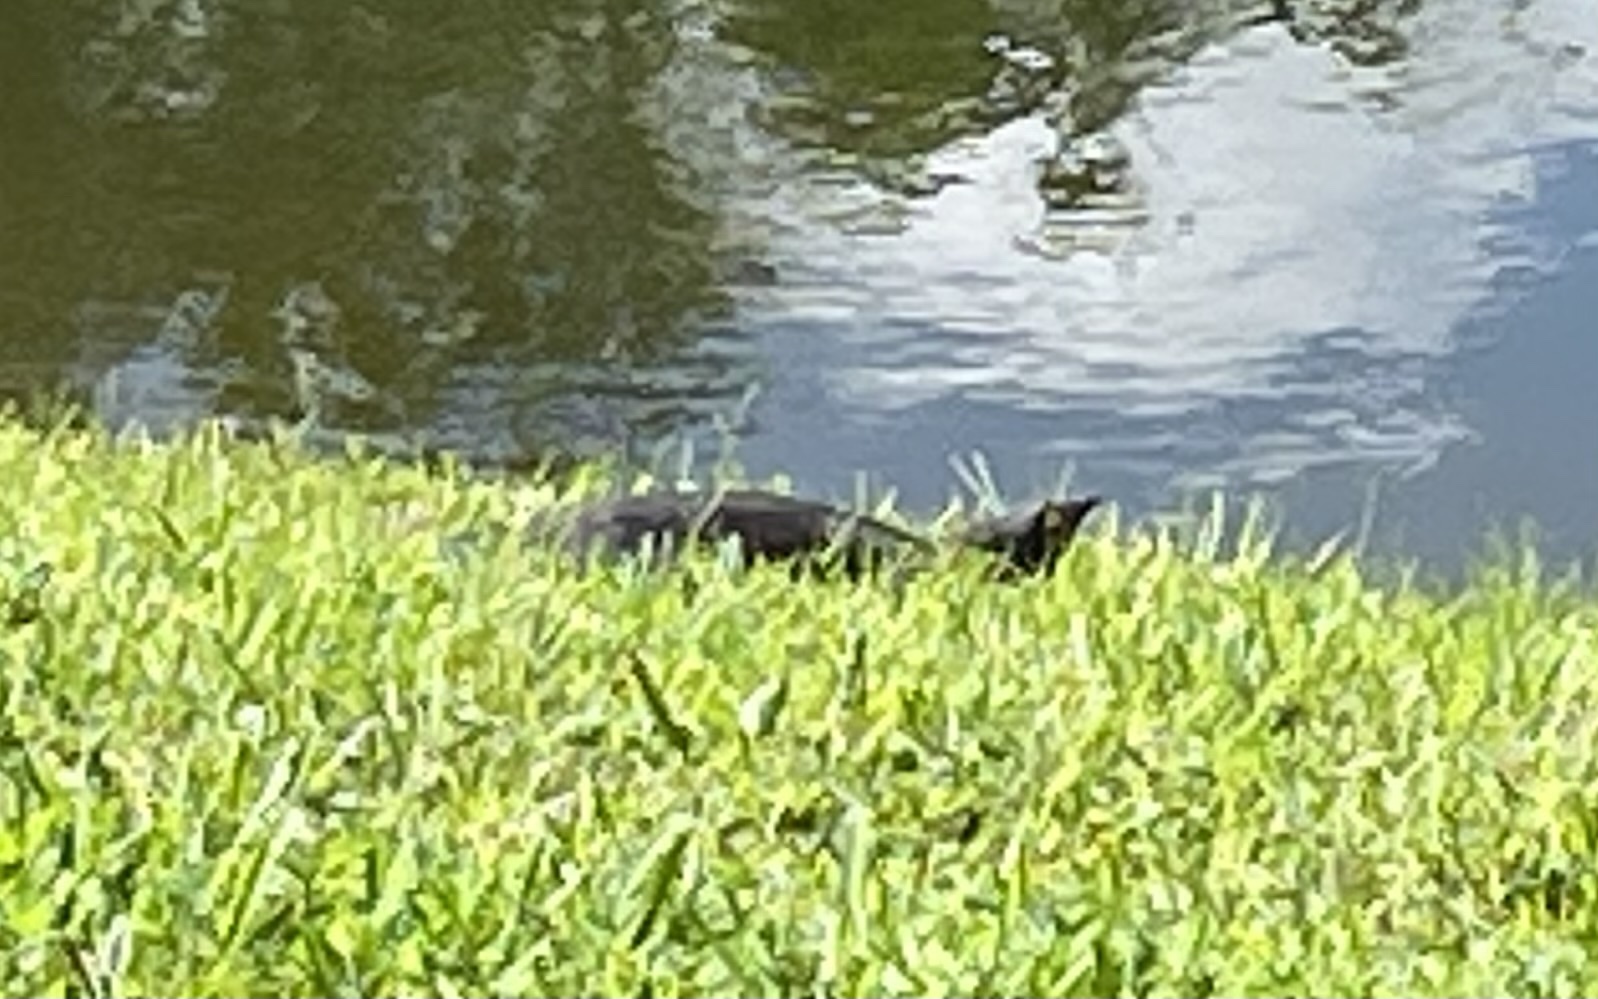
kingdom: Animalia
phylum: Chordata
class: Testudines
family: Trionychidae
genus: Apalone
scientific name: Apalone ferox
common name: Florida softshell turtle
